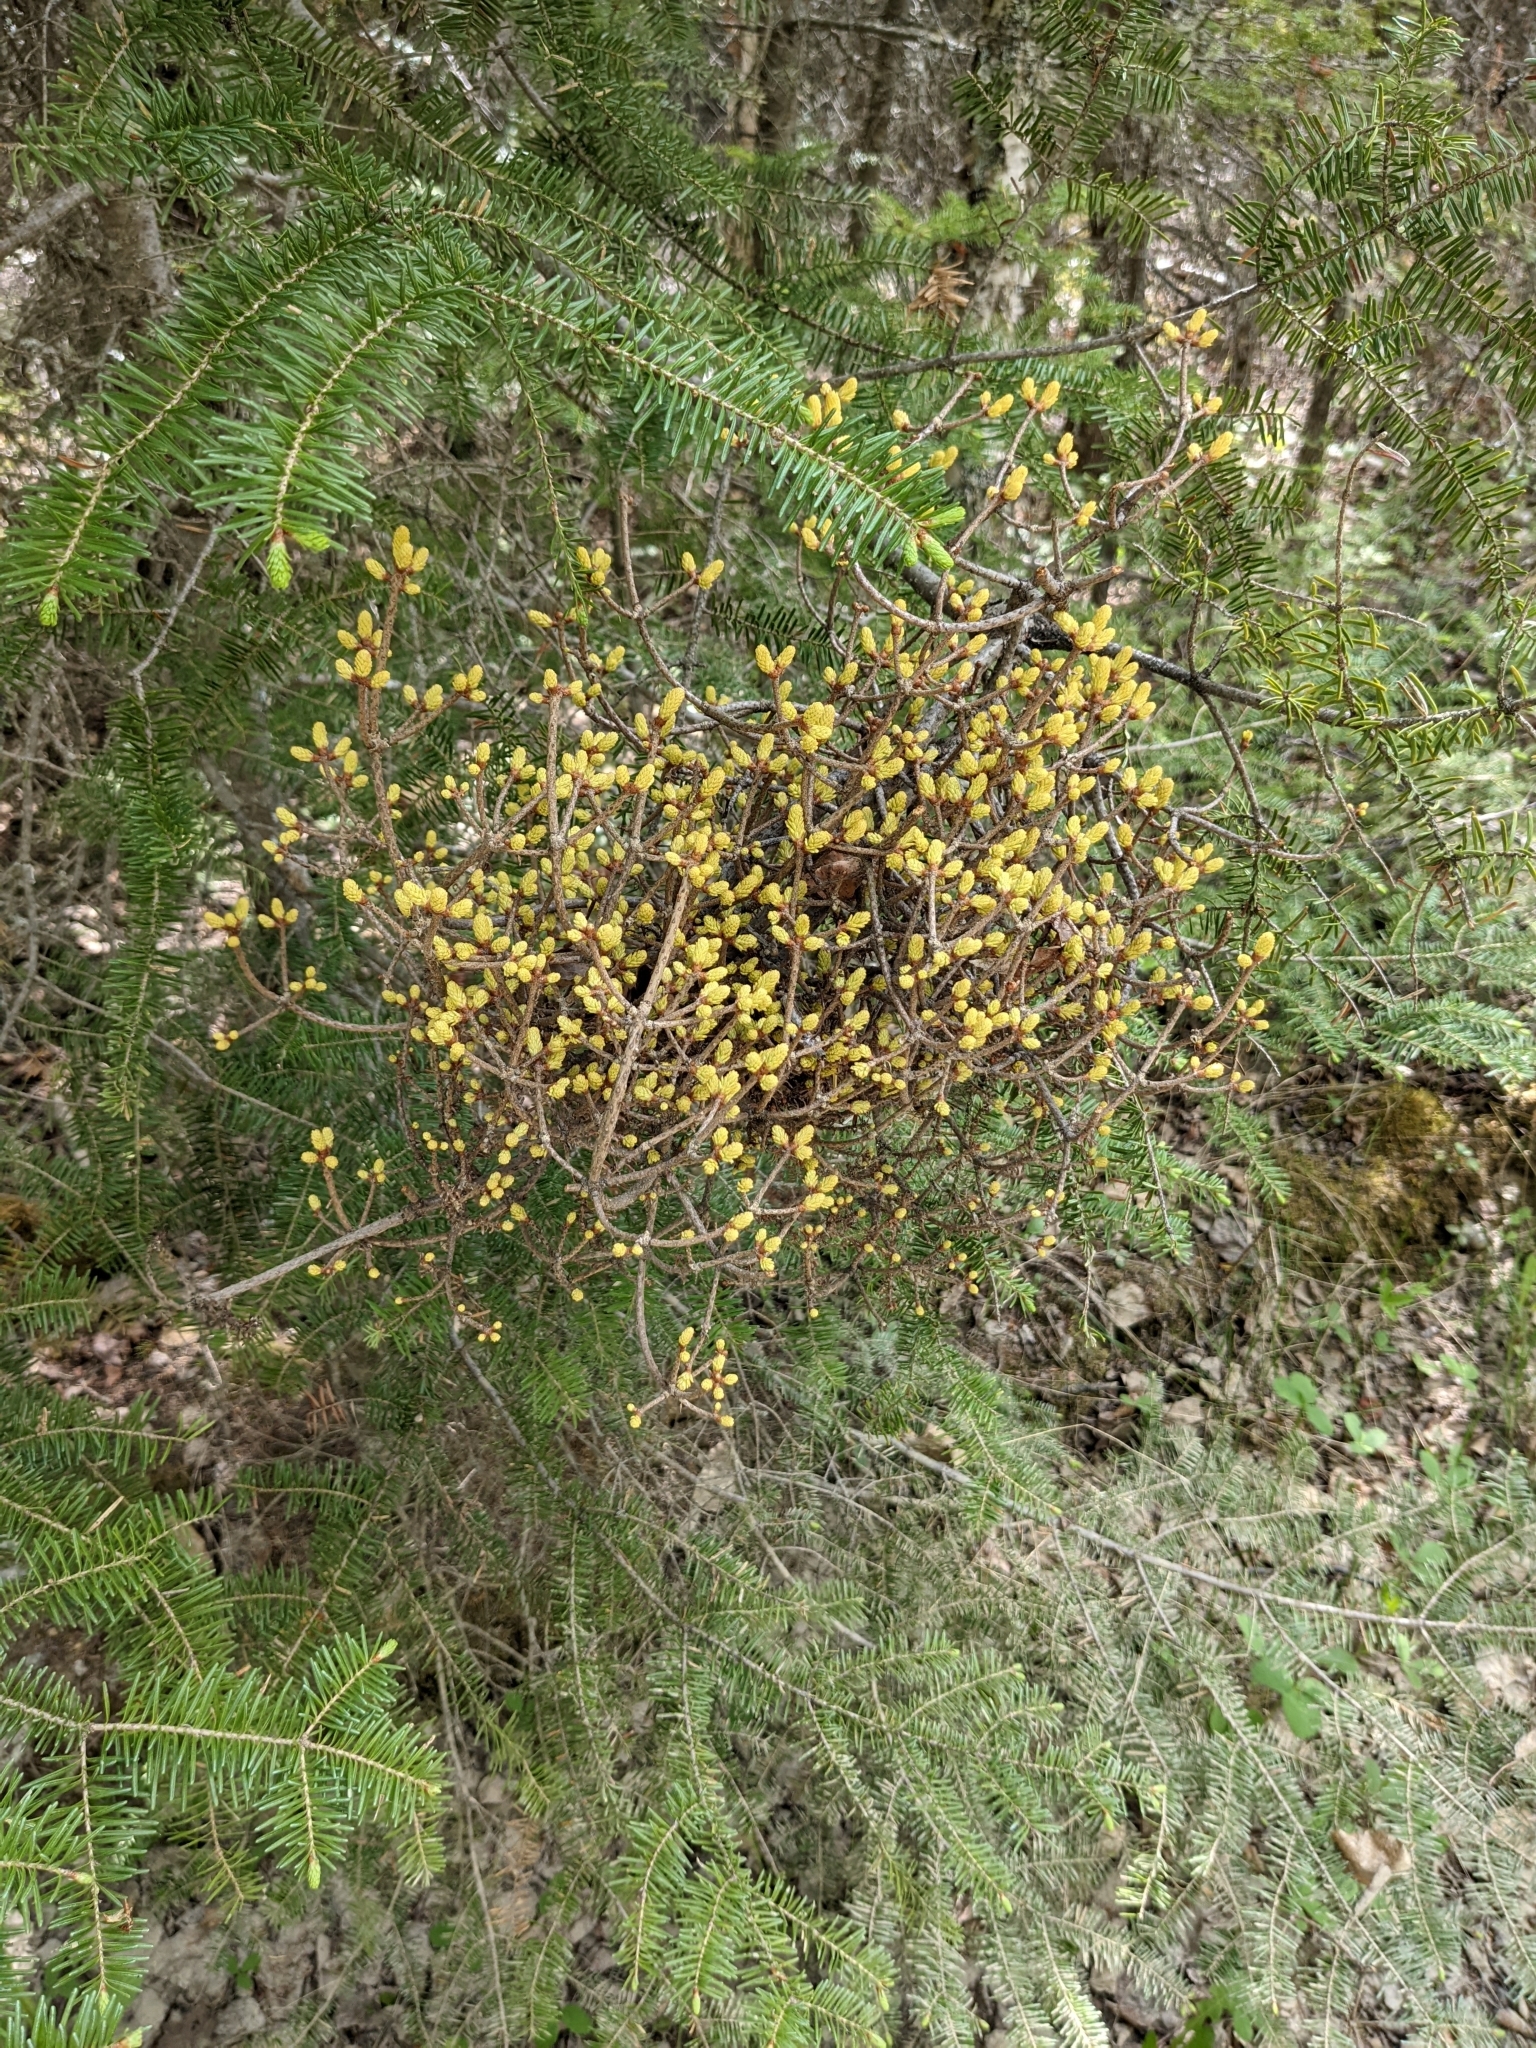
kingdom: Fungi
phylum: Basidiomycota
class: Pucciniomycetes
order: Pucciniales
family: Coleosporiaceae
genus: Chrysomyxa
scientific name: Chrysomyxa arctostaphyli
